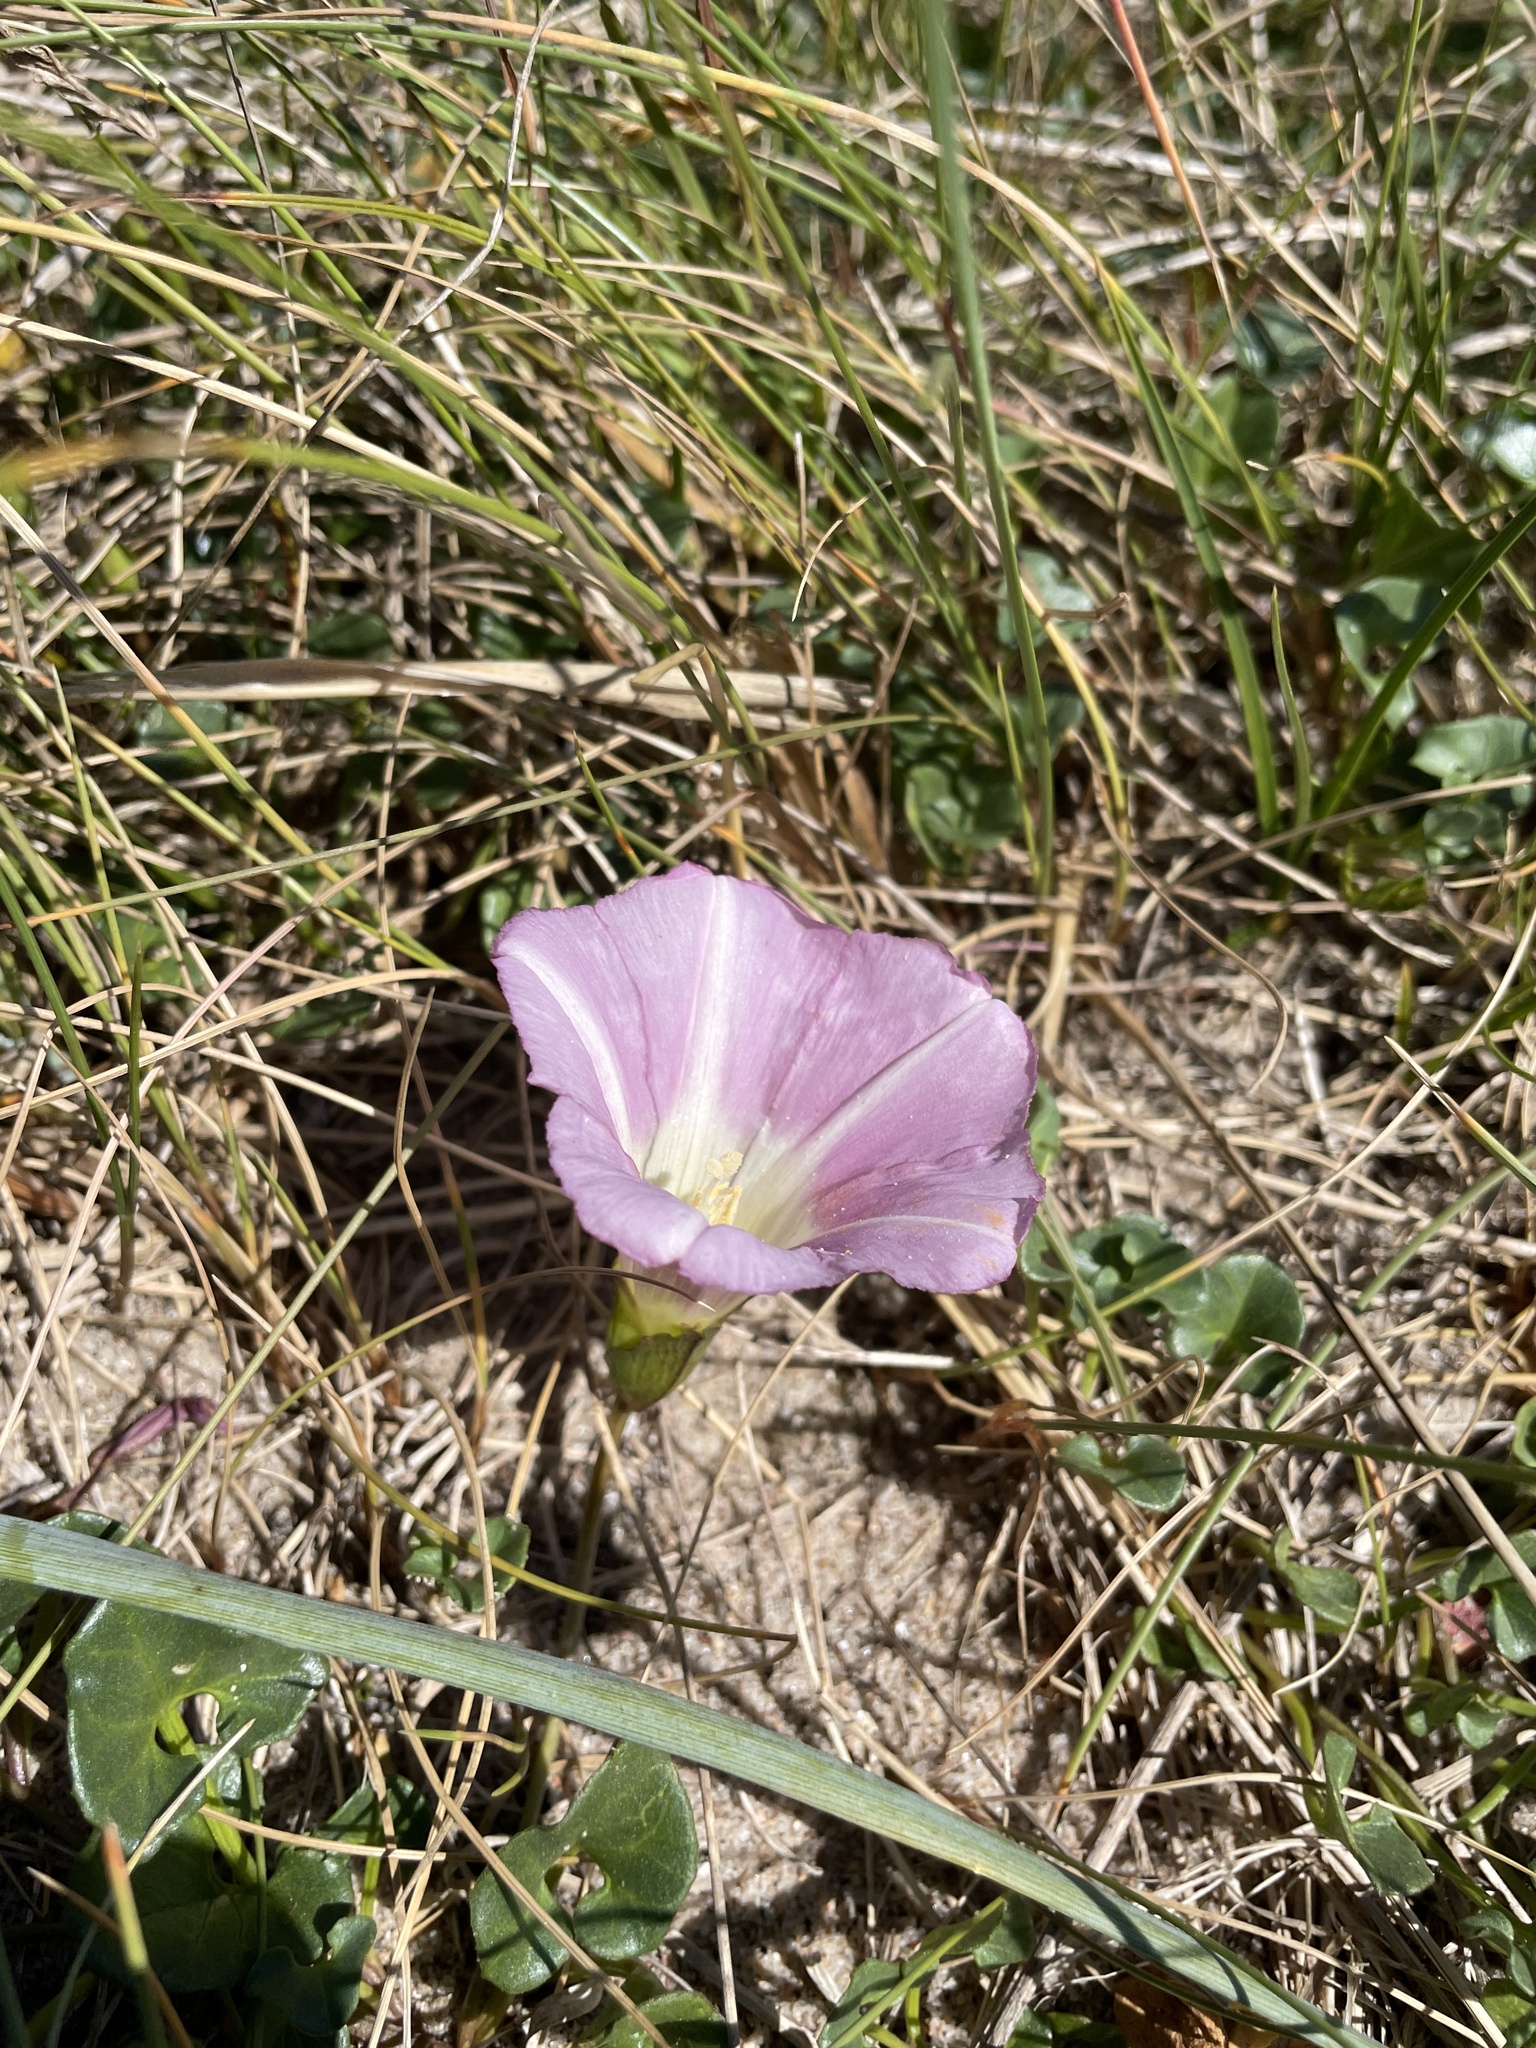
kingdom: Plantae
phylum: Tracheophyta
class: Magnoliopsida
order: Solanales
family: Convolvulaceae
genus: Calystegia
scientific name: Calystegia soldanella
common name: Sea bindweed
